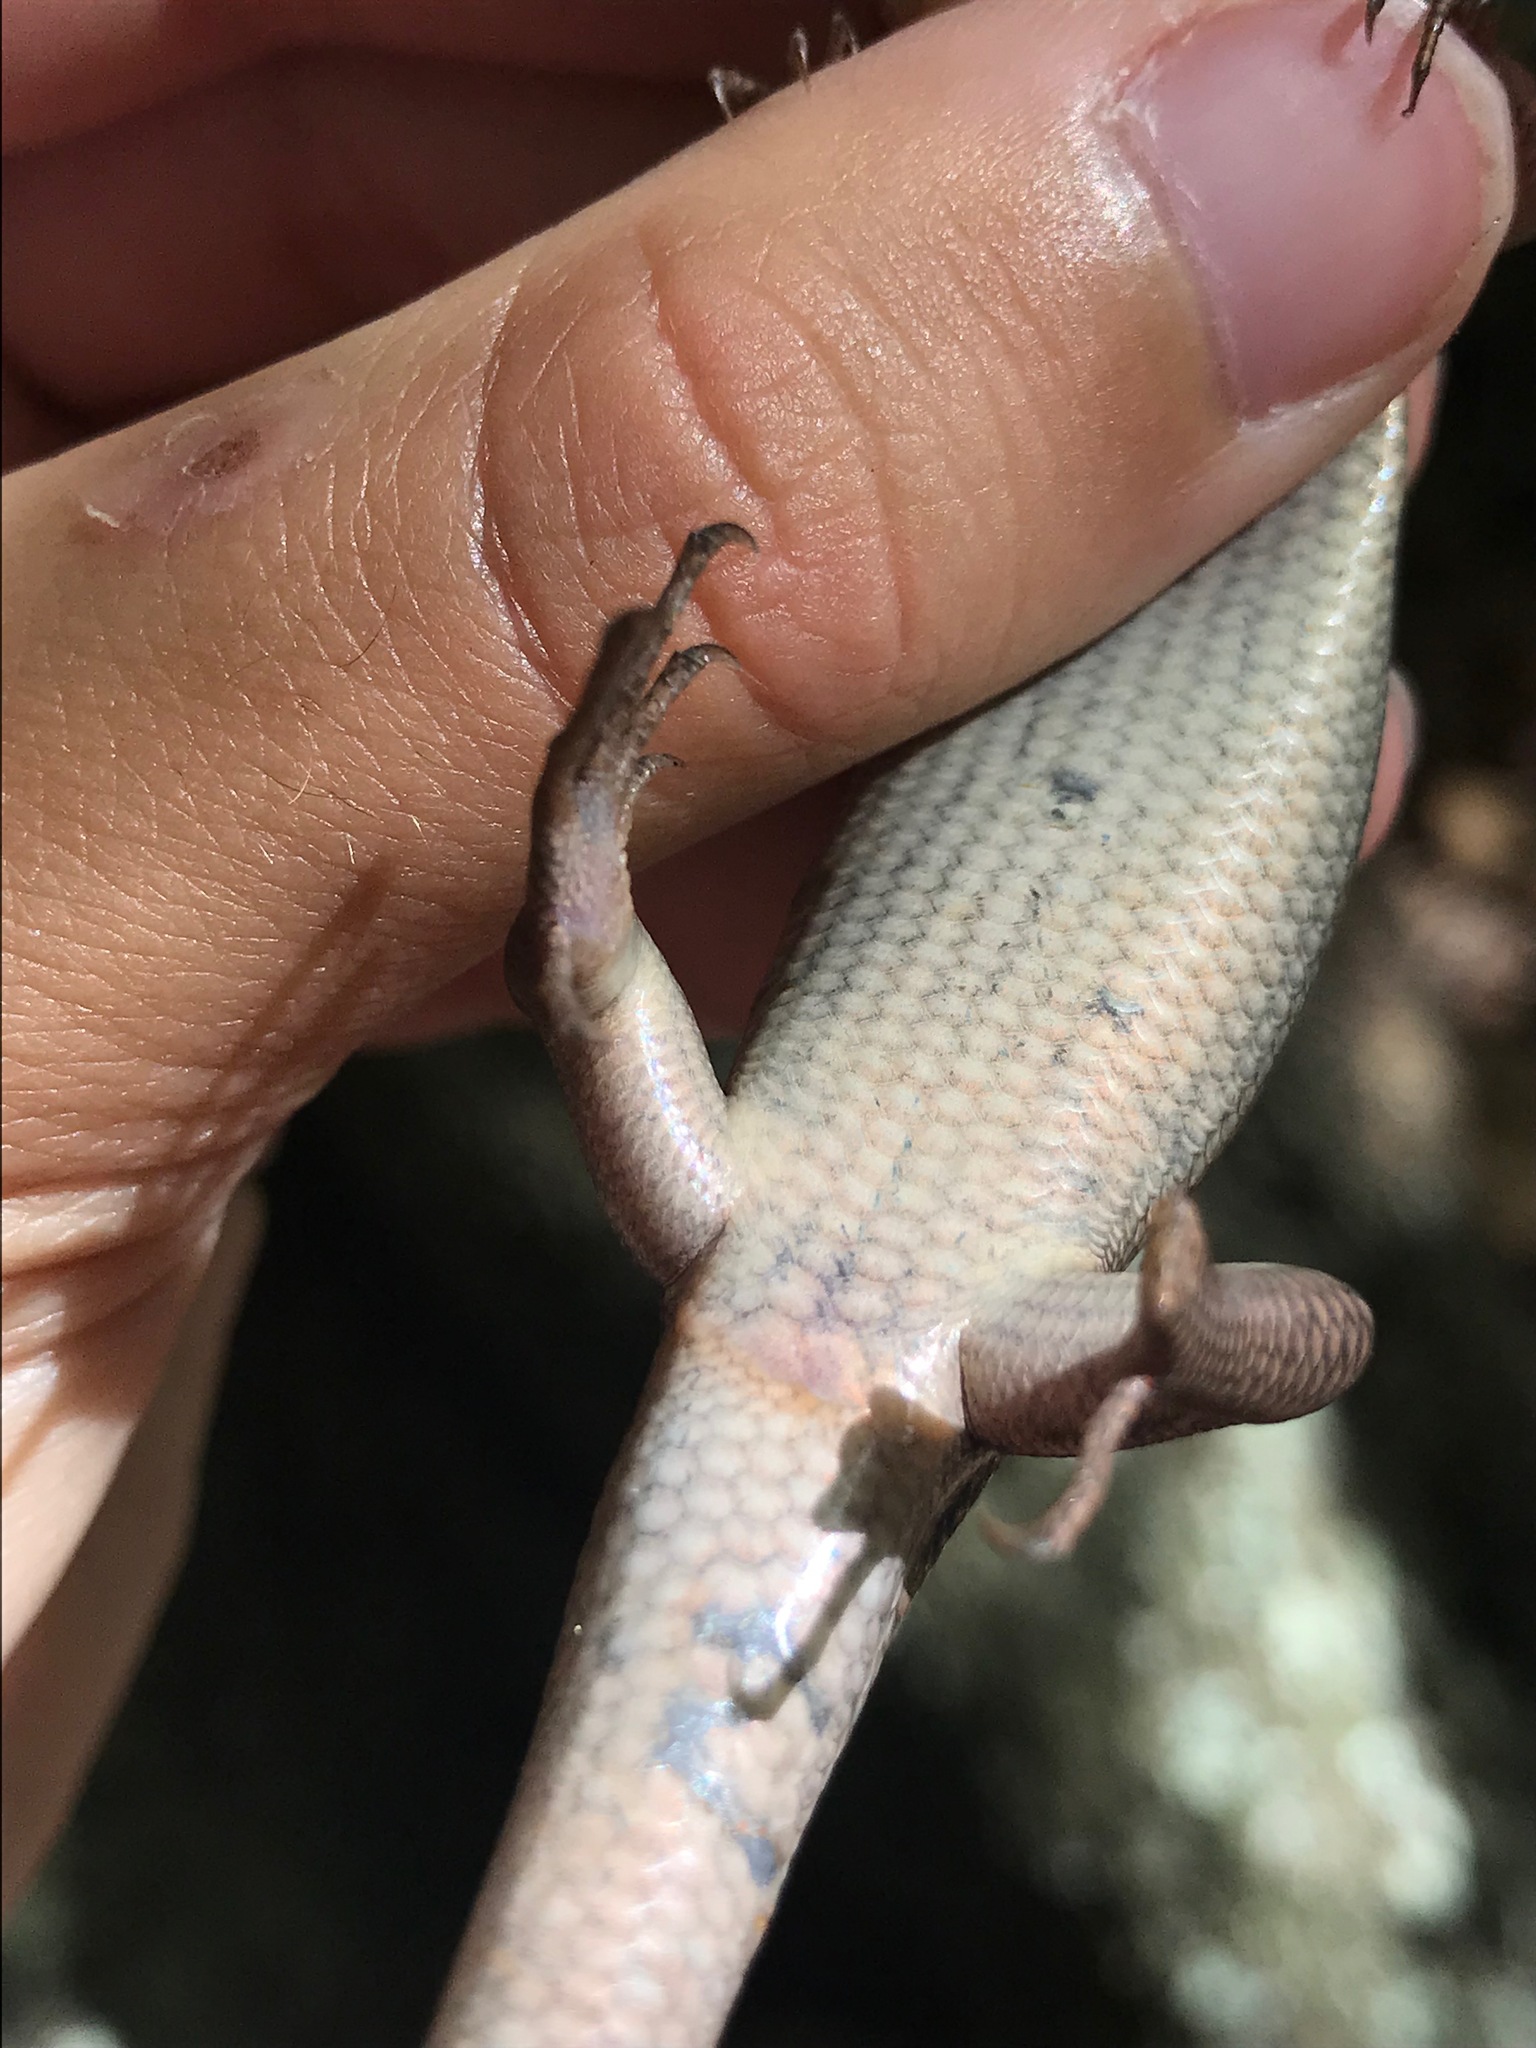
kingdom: Animalia
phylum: Chordata
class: Squamata
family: Scincidae
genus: Plestiodon
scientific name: Plestiodon inexpectatus
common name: Southeastern five-lined skink
